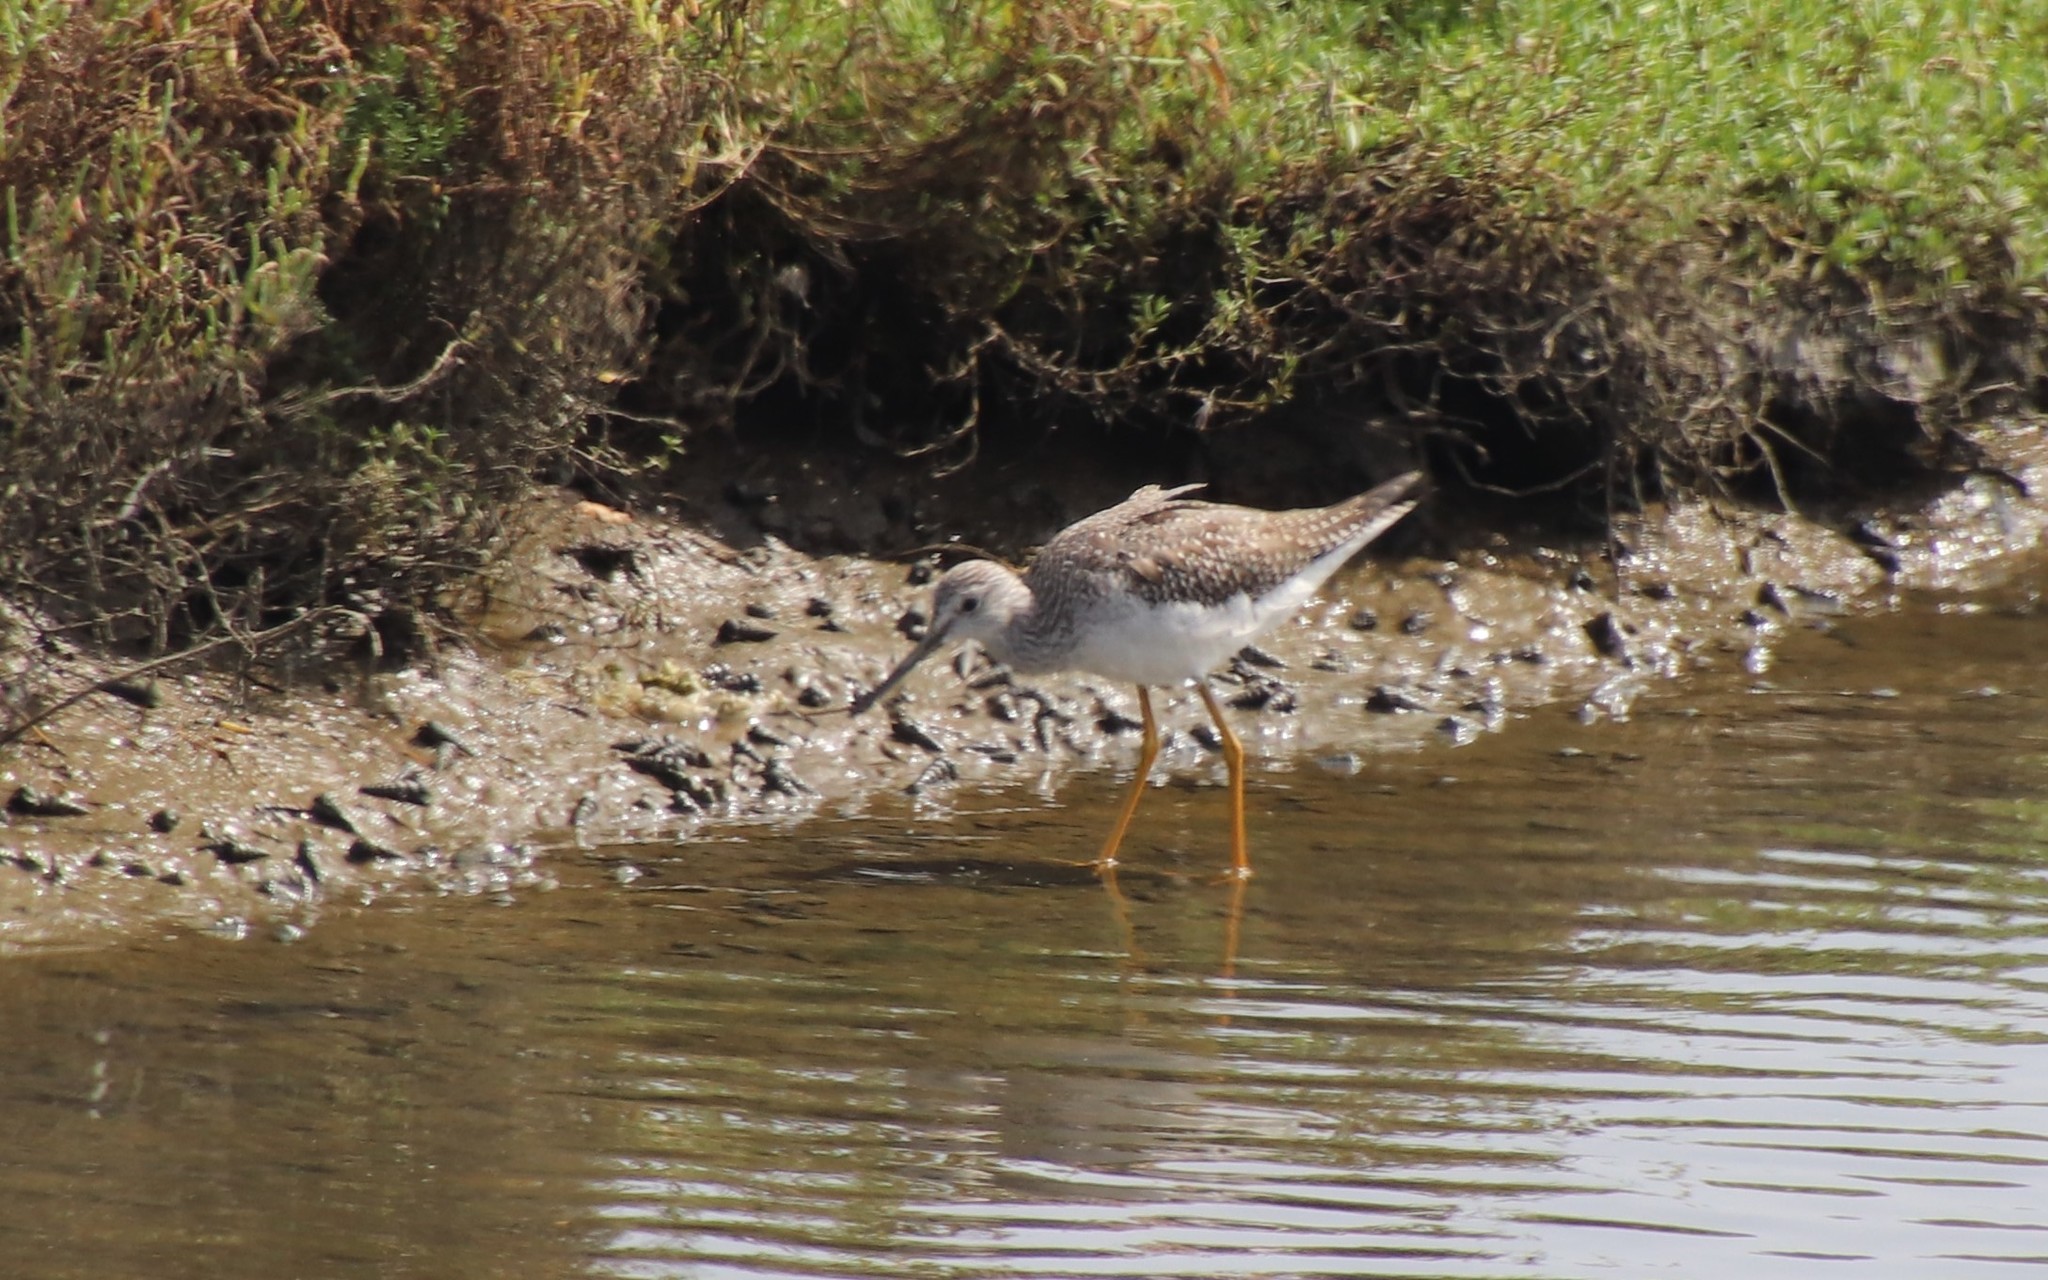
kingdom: Animalia
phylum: Chordata
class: Aves
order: Charadriiformes
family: Scolopacidae
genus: Tringa
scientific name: Tringa melanoleuca
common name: Greater yellowlegs
